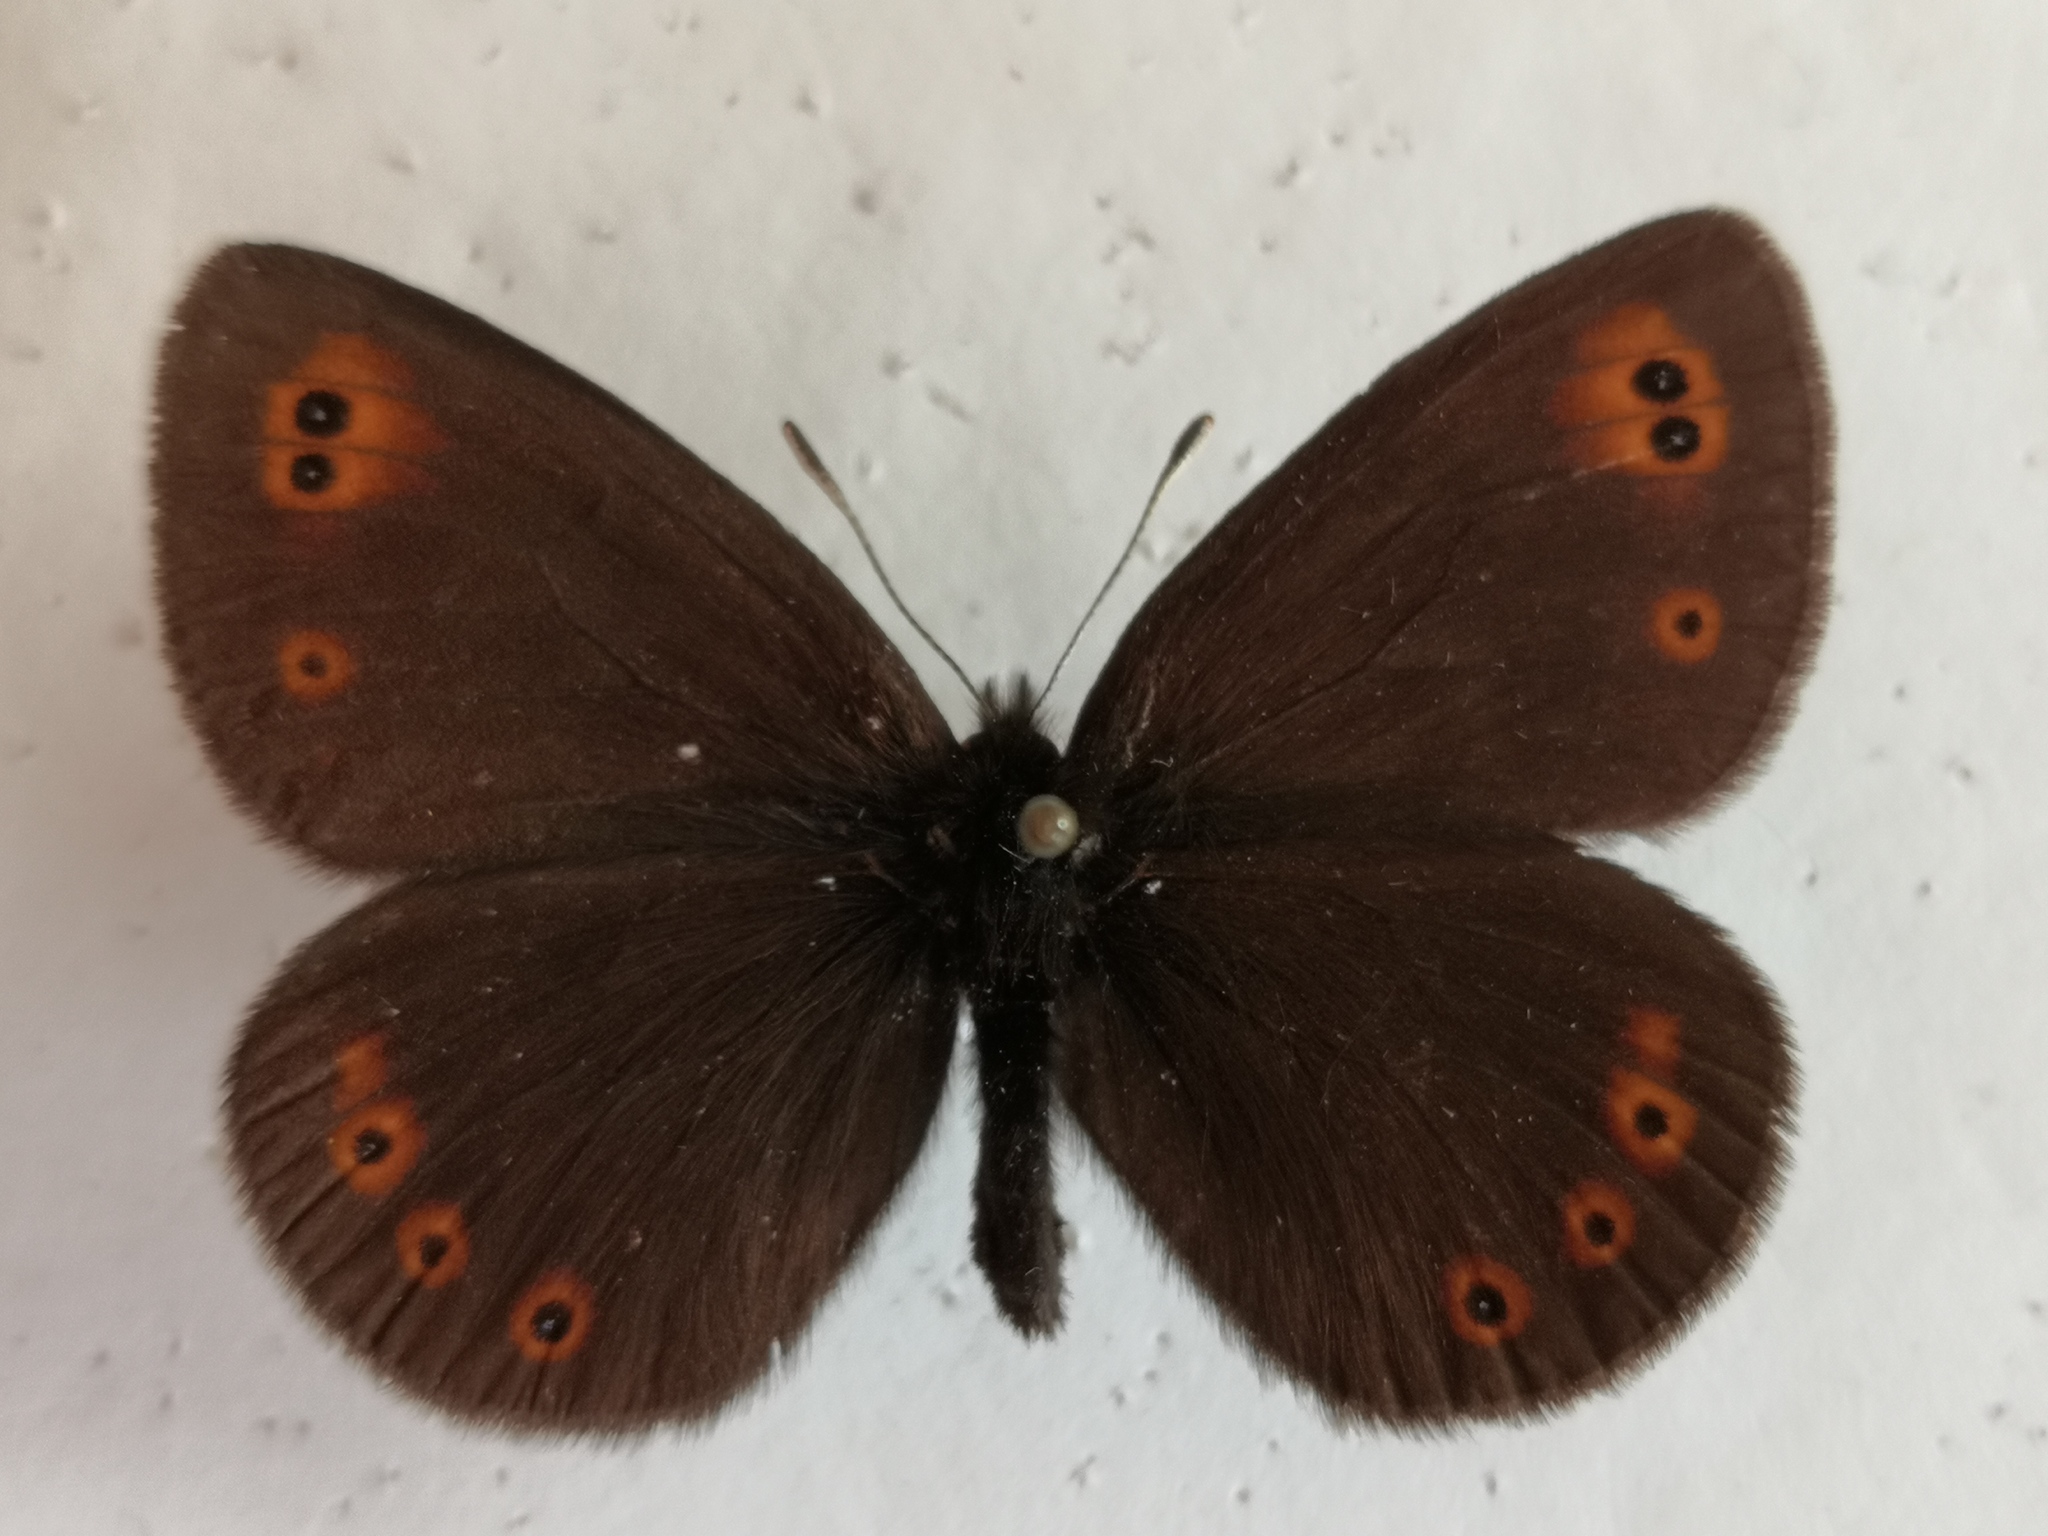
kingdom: Animalia
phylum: Arthropoda
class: Insecta
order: Lepidoptera
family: Nymphalidae
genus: Erebia
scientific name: Erebia medusa
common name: Woodland ringlet
